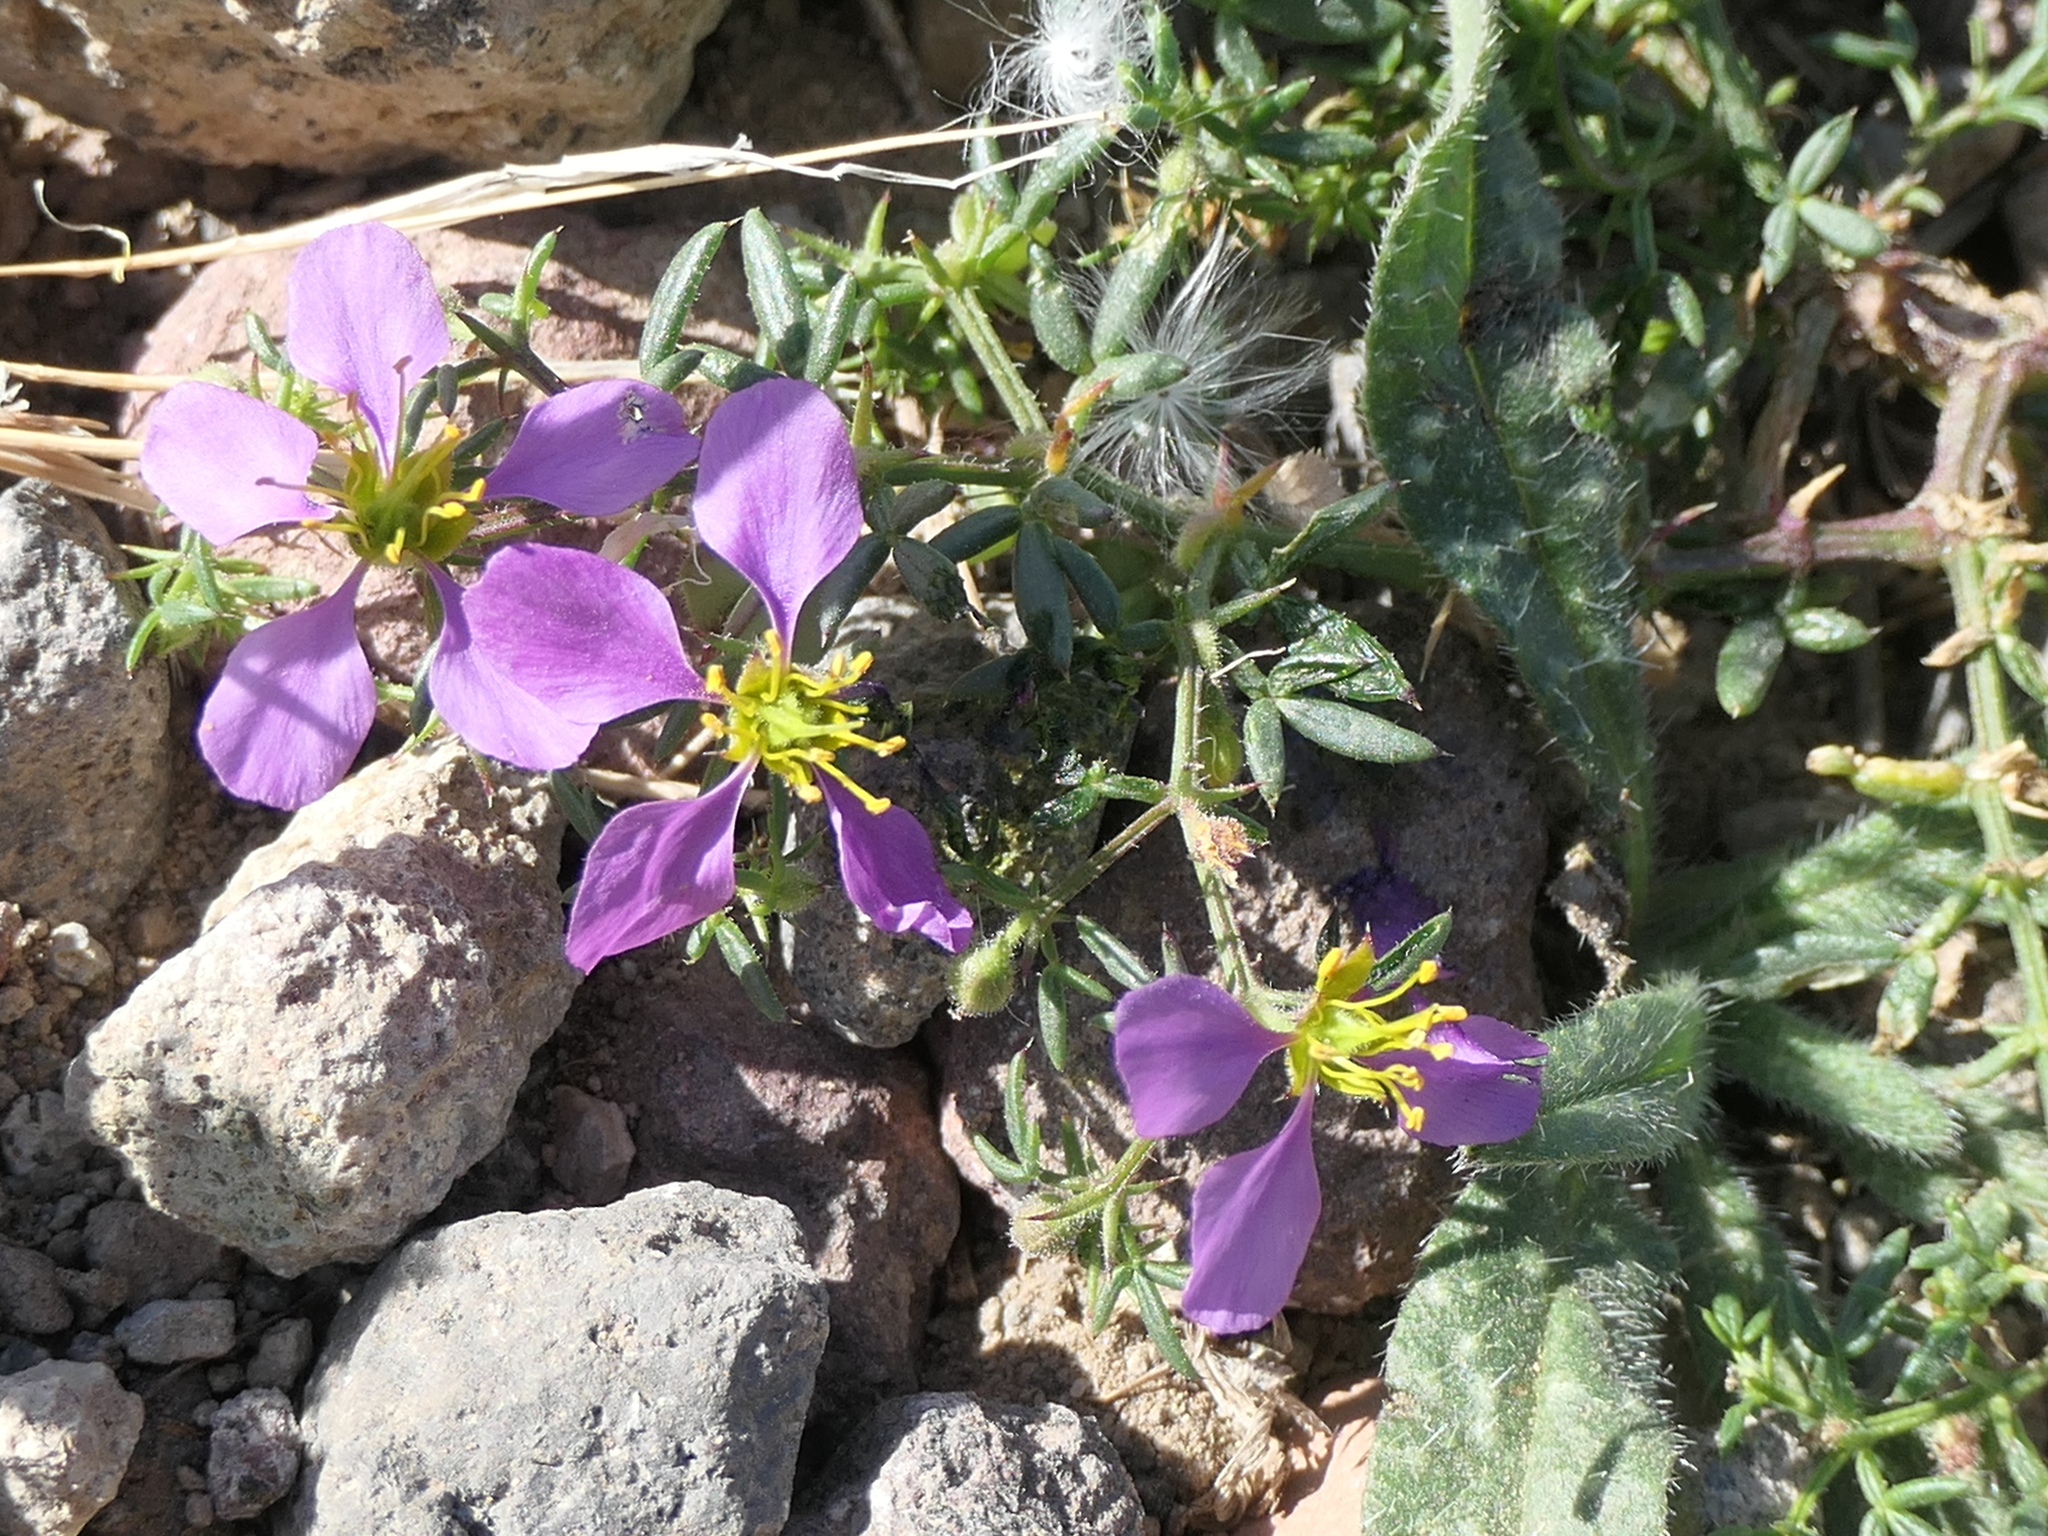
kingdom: Plantae
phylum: Tracheophyta
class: Magnoliopsida
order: Zygophyllales
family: Zygophyllaceae
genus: Fagonia
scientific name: Fagonia cretica
